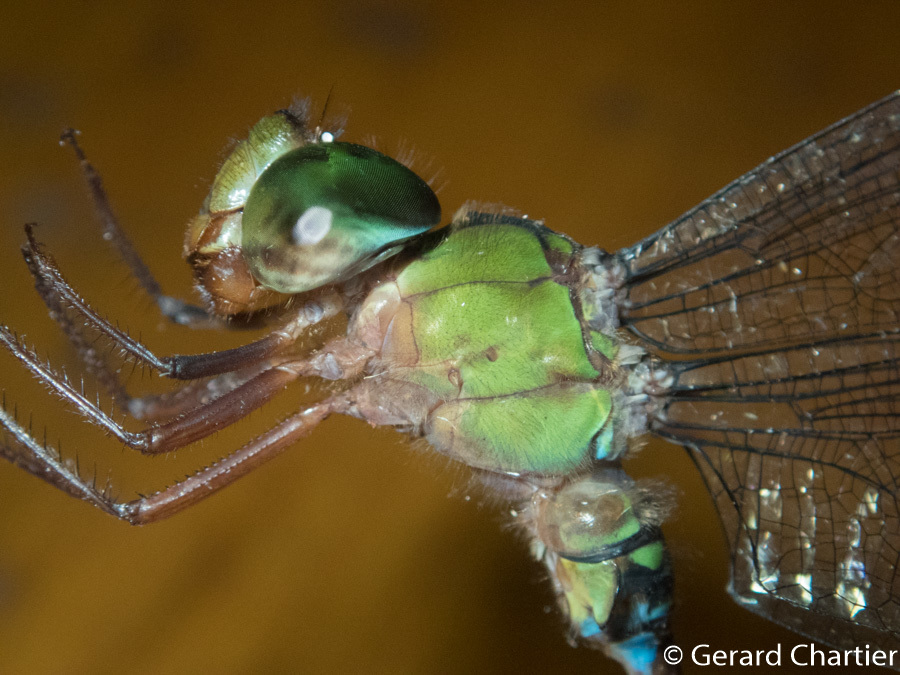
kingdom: Animalia
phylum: Arthropoda
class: Insecta
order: Odonata
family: Aeshnidae
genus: Gynacantha
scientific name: Gynacantha demeter
